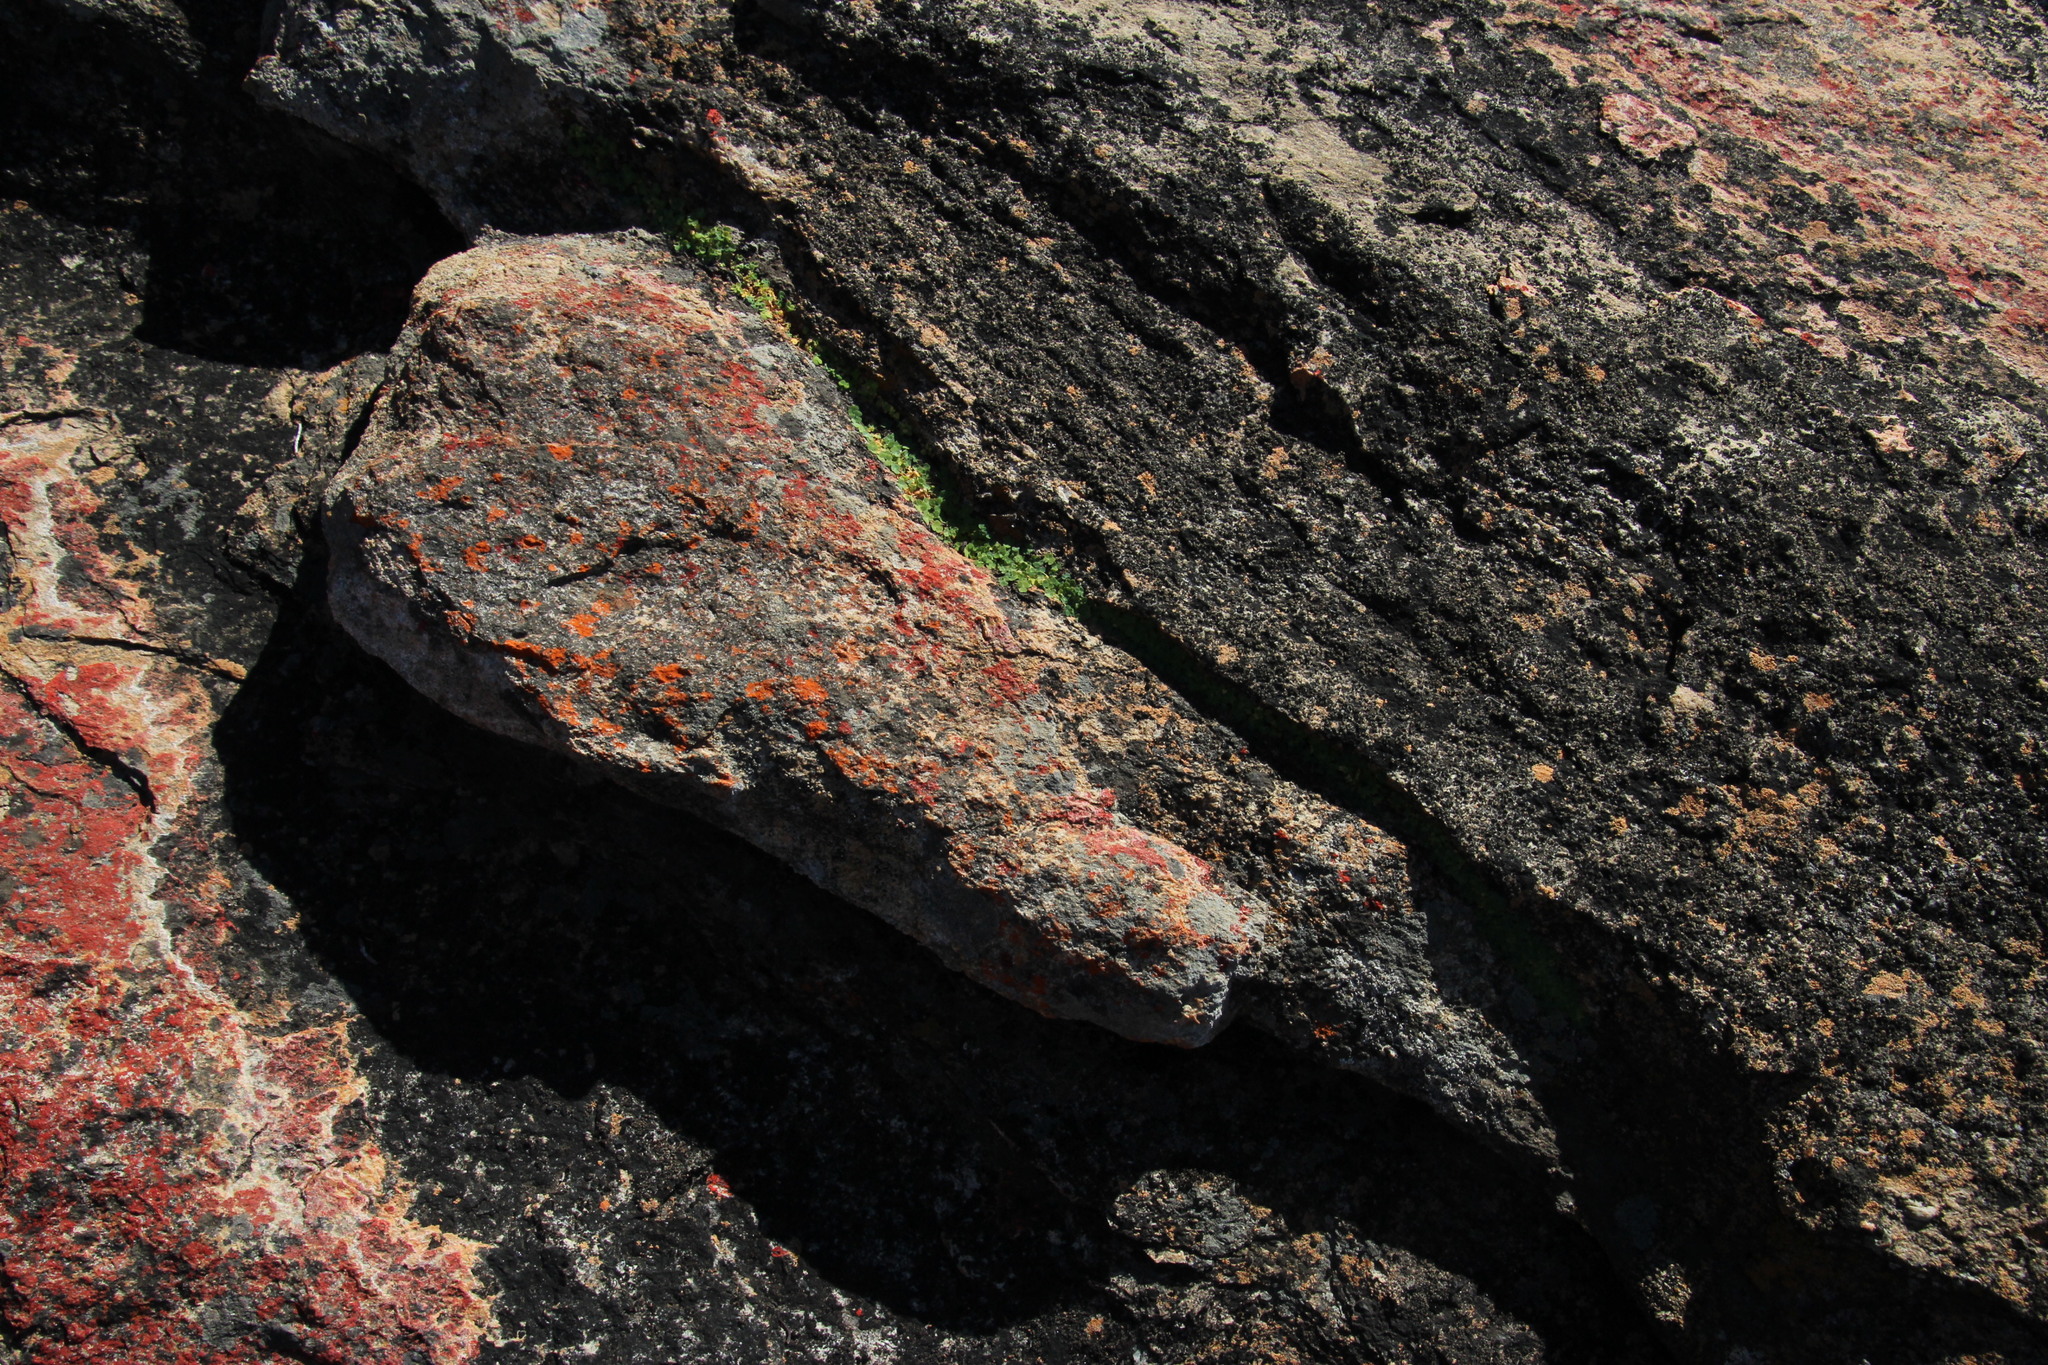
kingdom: Plantae
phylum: Tracheophyta
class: Magnoliopsida
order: Oxalidales
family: Oxalidaceae
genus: Oxalis
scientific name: Oxalis obtusa
